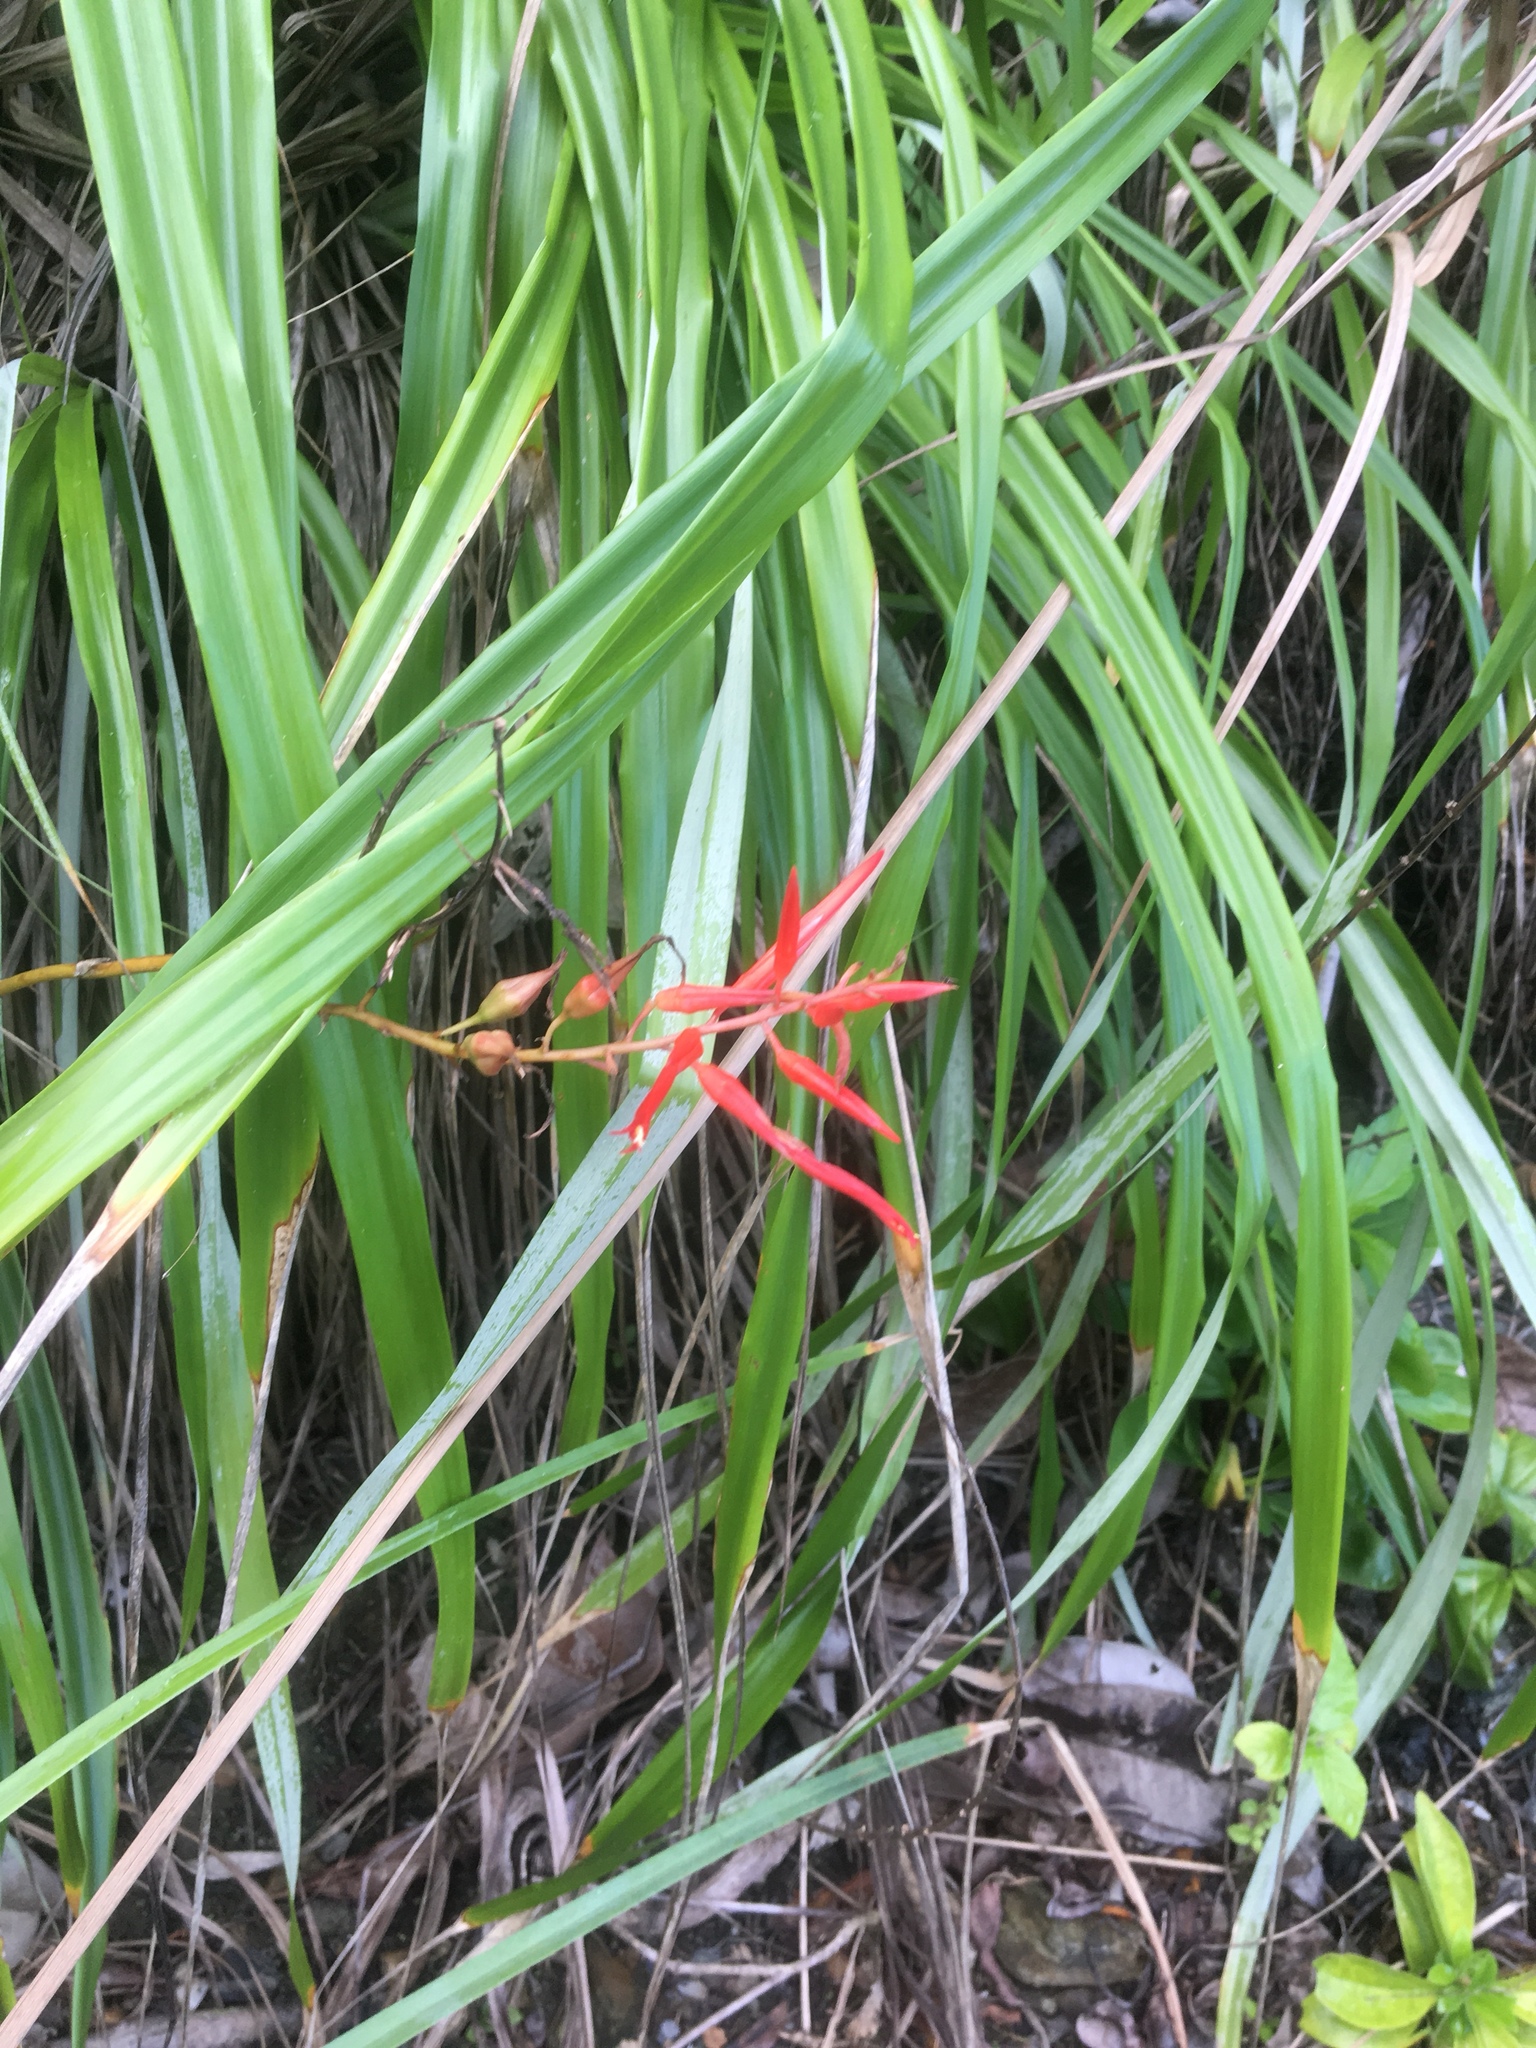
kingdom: Plantae
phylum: Tracheophyta
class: Liliopsida
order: Poales
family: Bromeliaceae
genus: Pitcairnia
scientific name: Pitcairnia integrifolia
